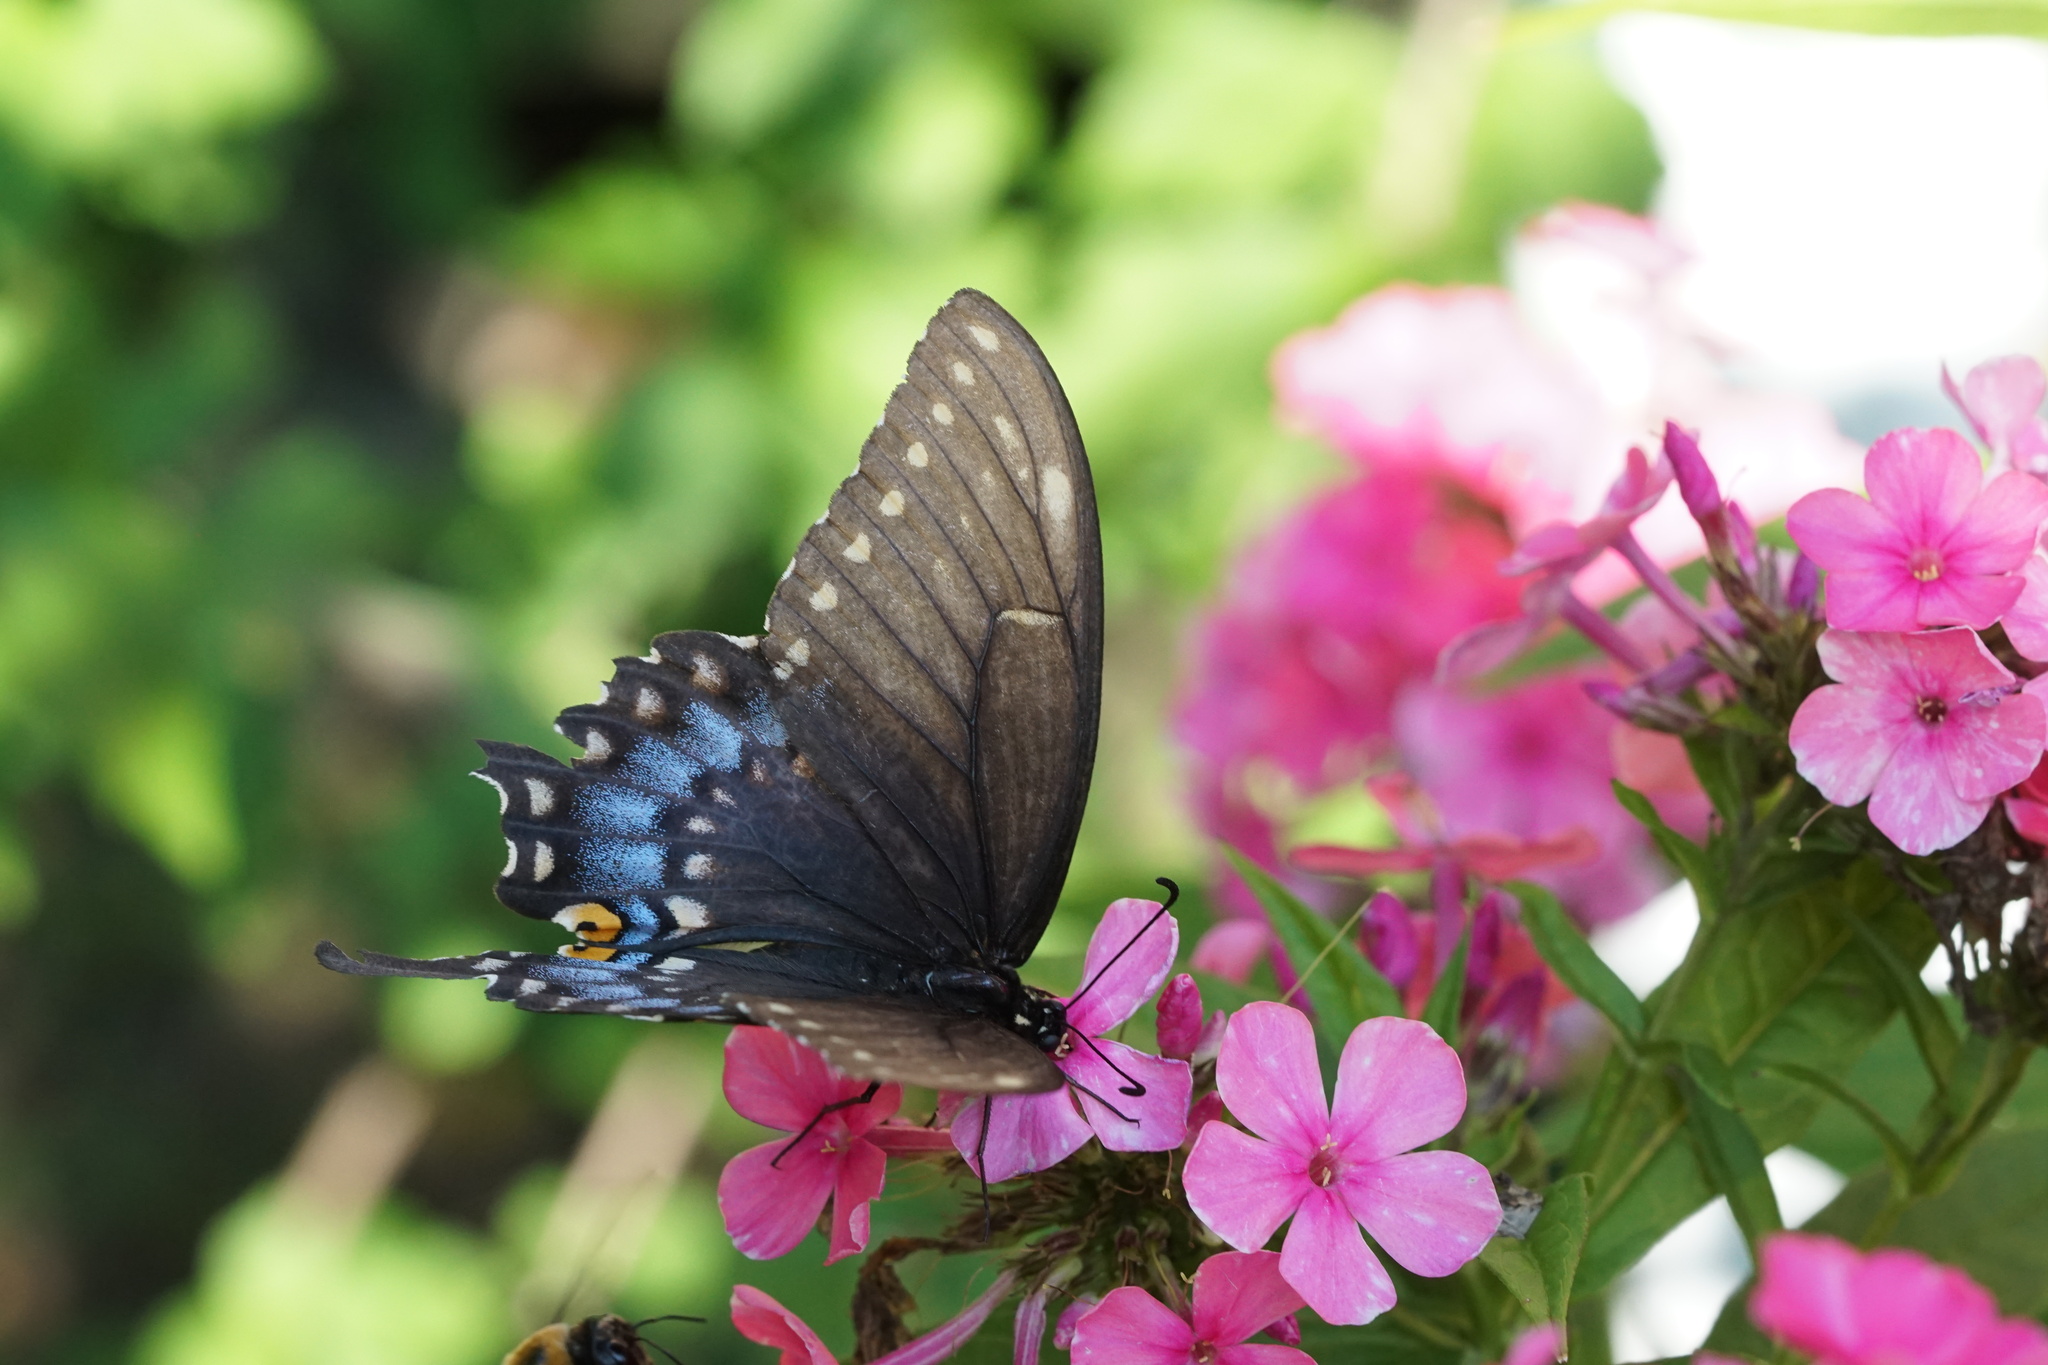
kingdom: Animalia
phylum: Arthropoda
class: Insecta
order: Lepidoptera
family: Papilionidae
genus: Papilio
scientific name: Papilio polyxenes
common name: Black swallowtail
